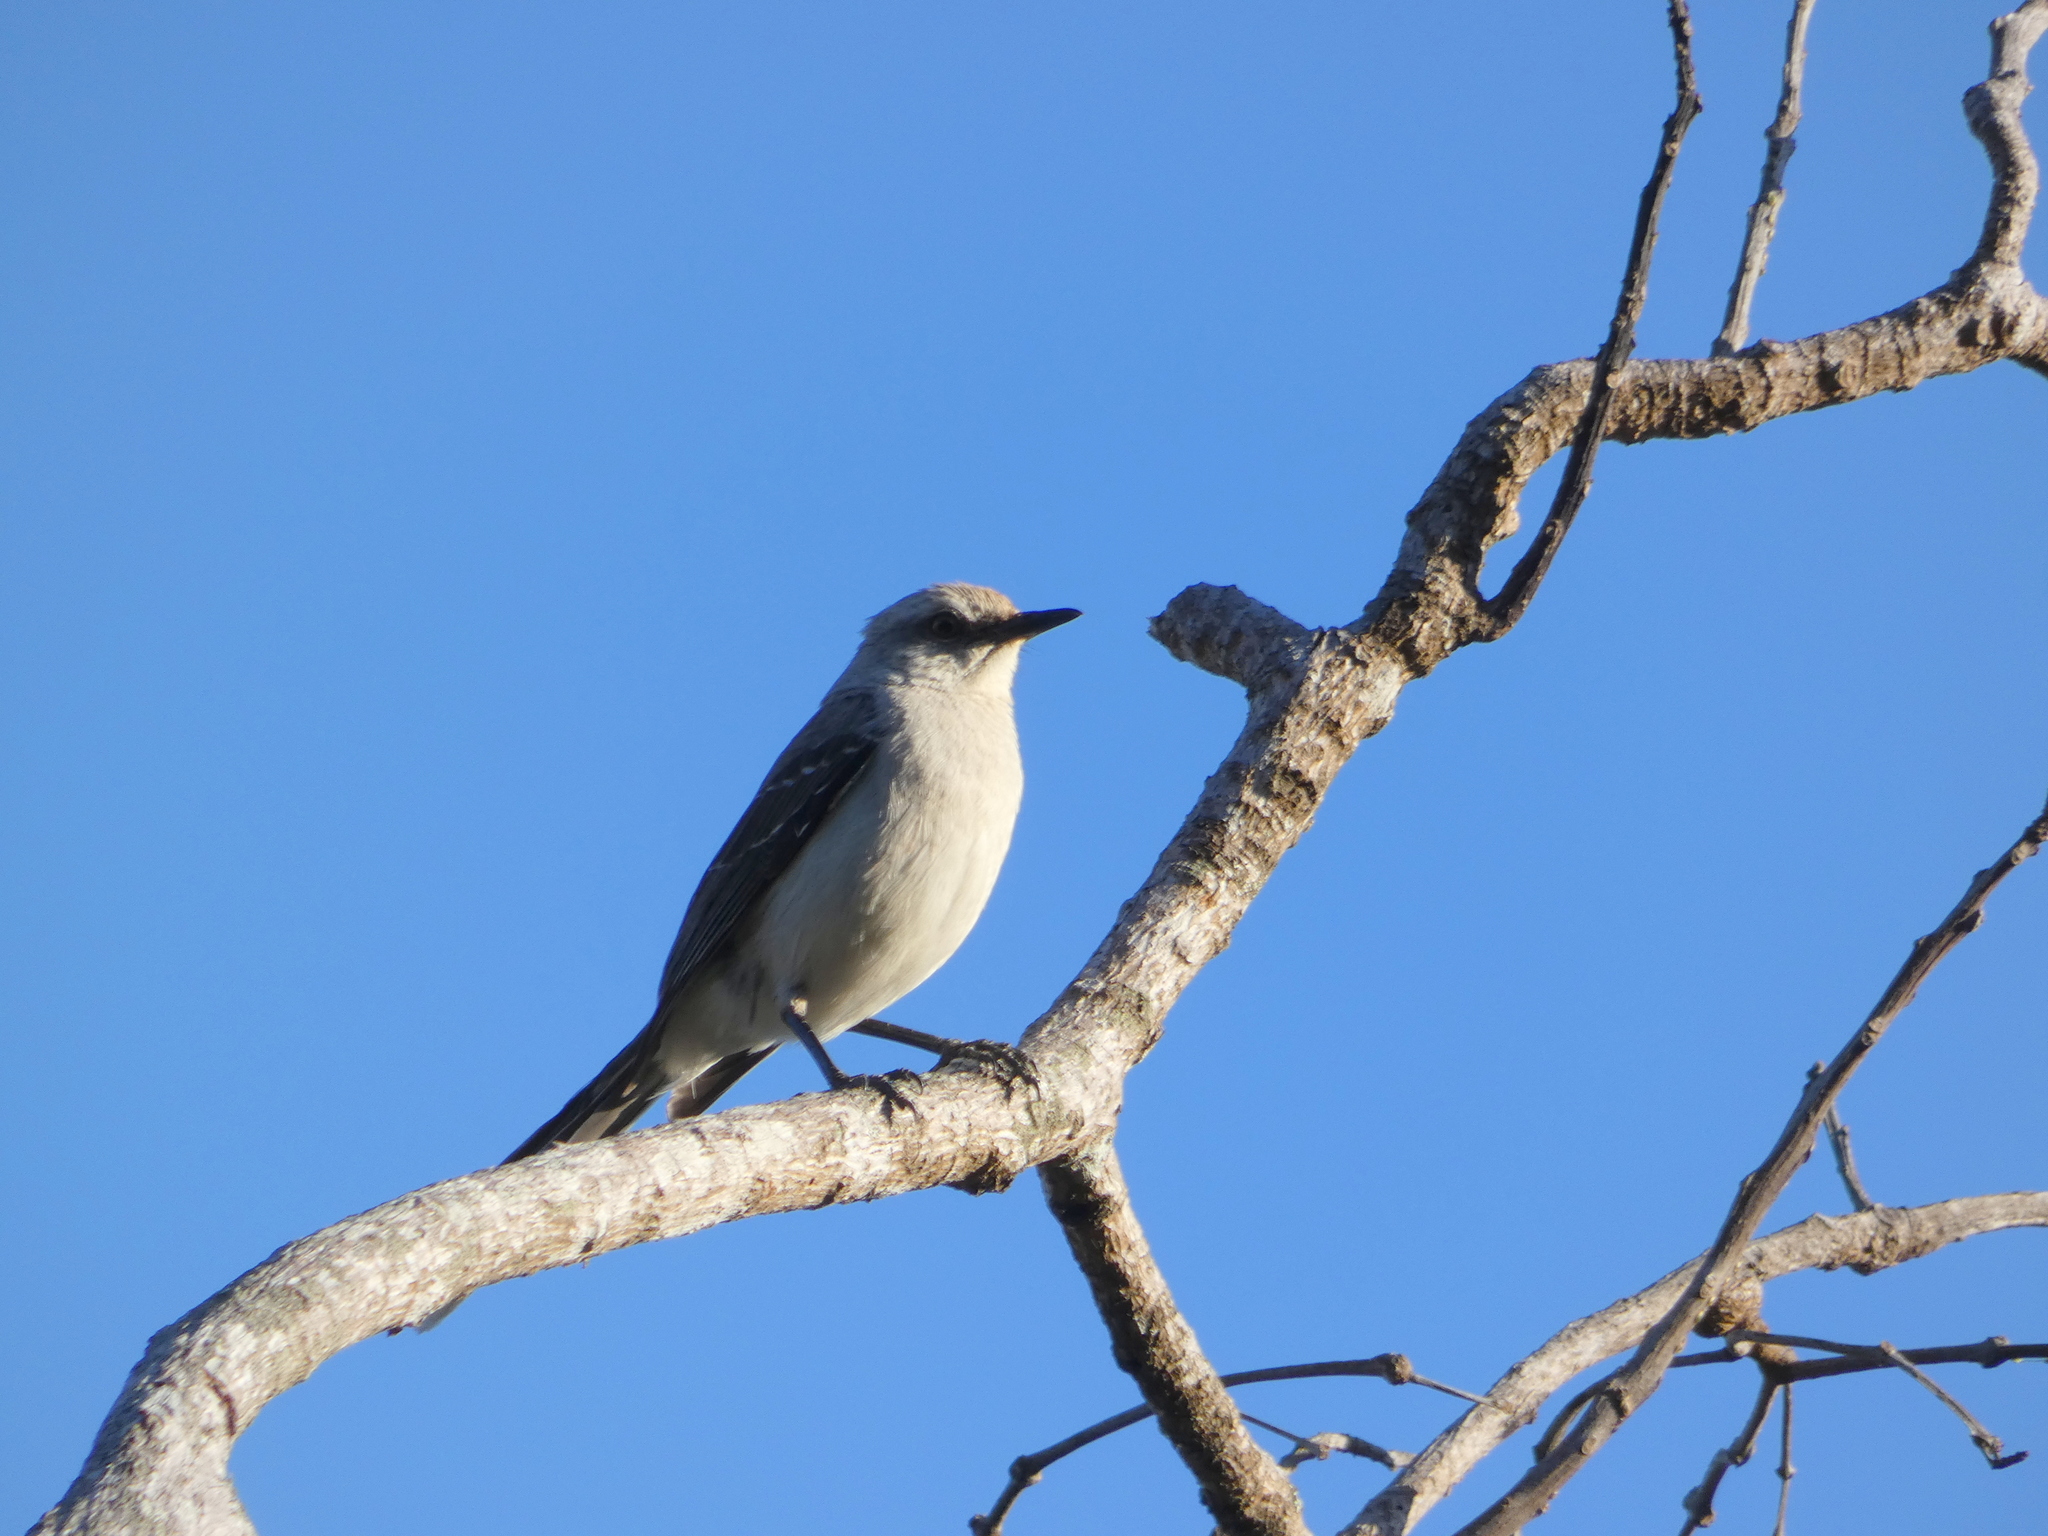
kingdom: Animalia
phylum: Chordata
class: Aves
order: Passeriformes
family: Mimidae
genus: Mimus
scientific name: Mimus gilvus
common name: Tropical mockingbird
